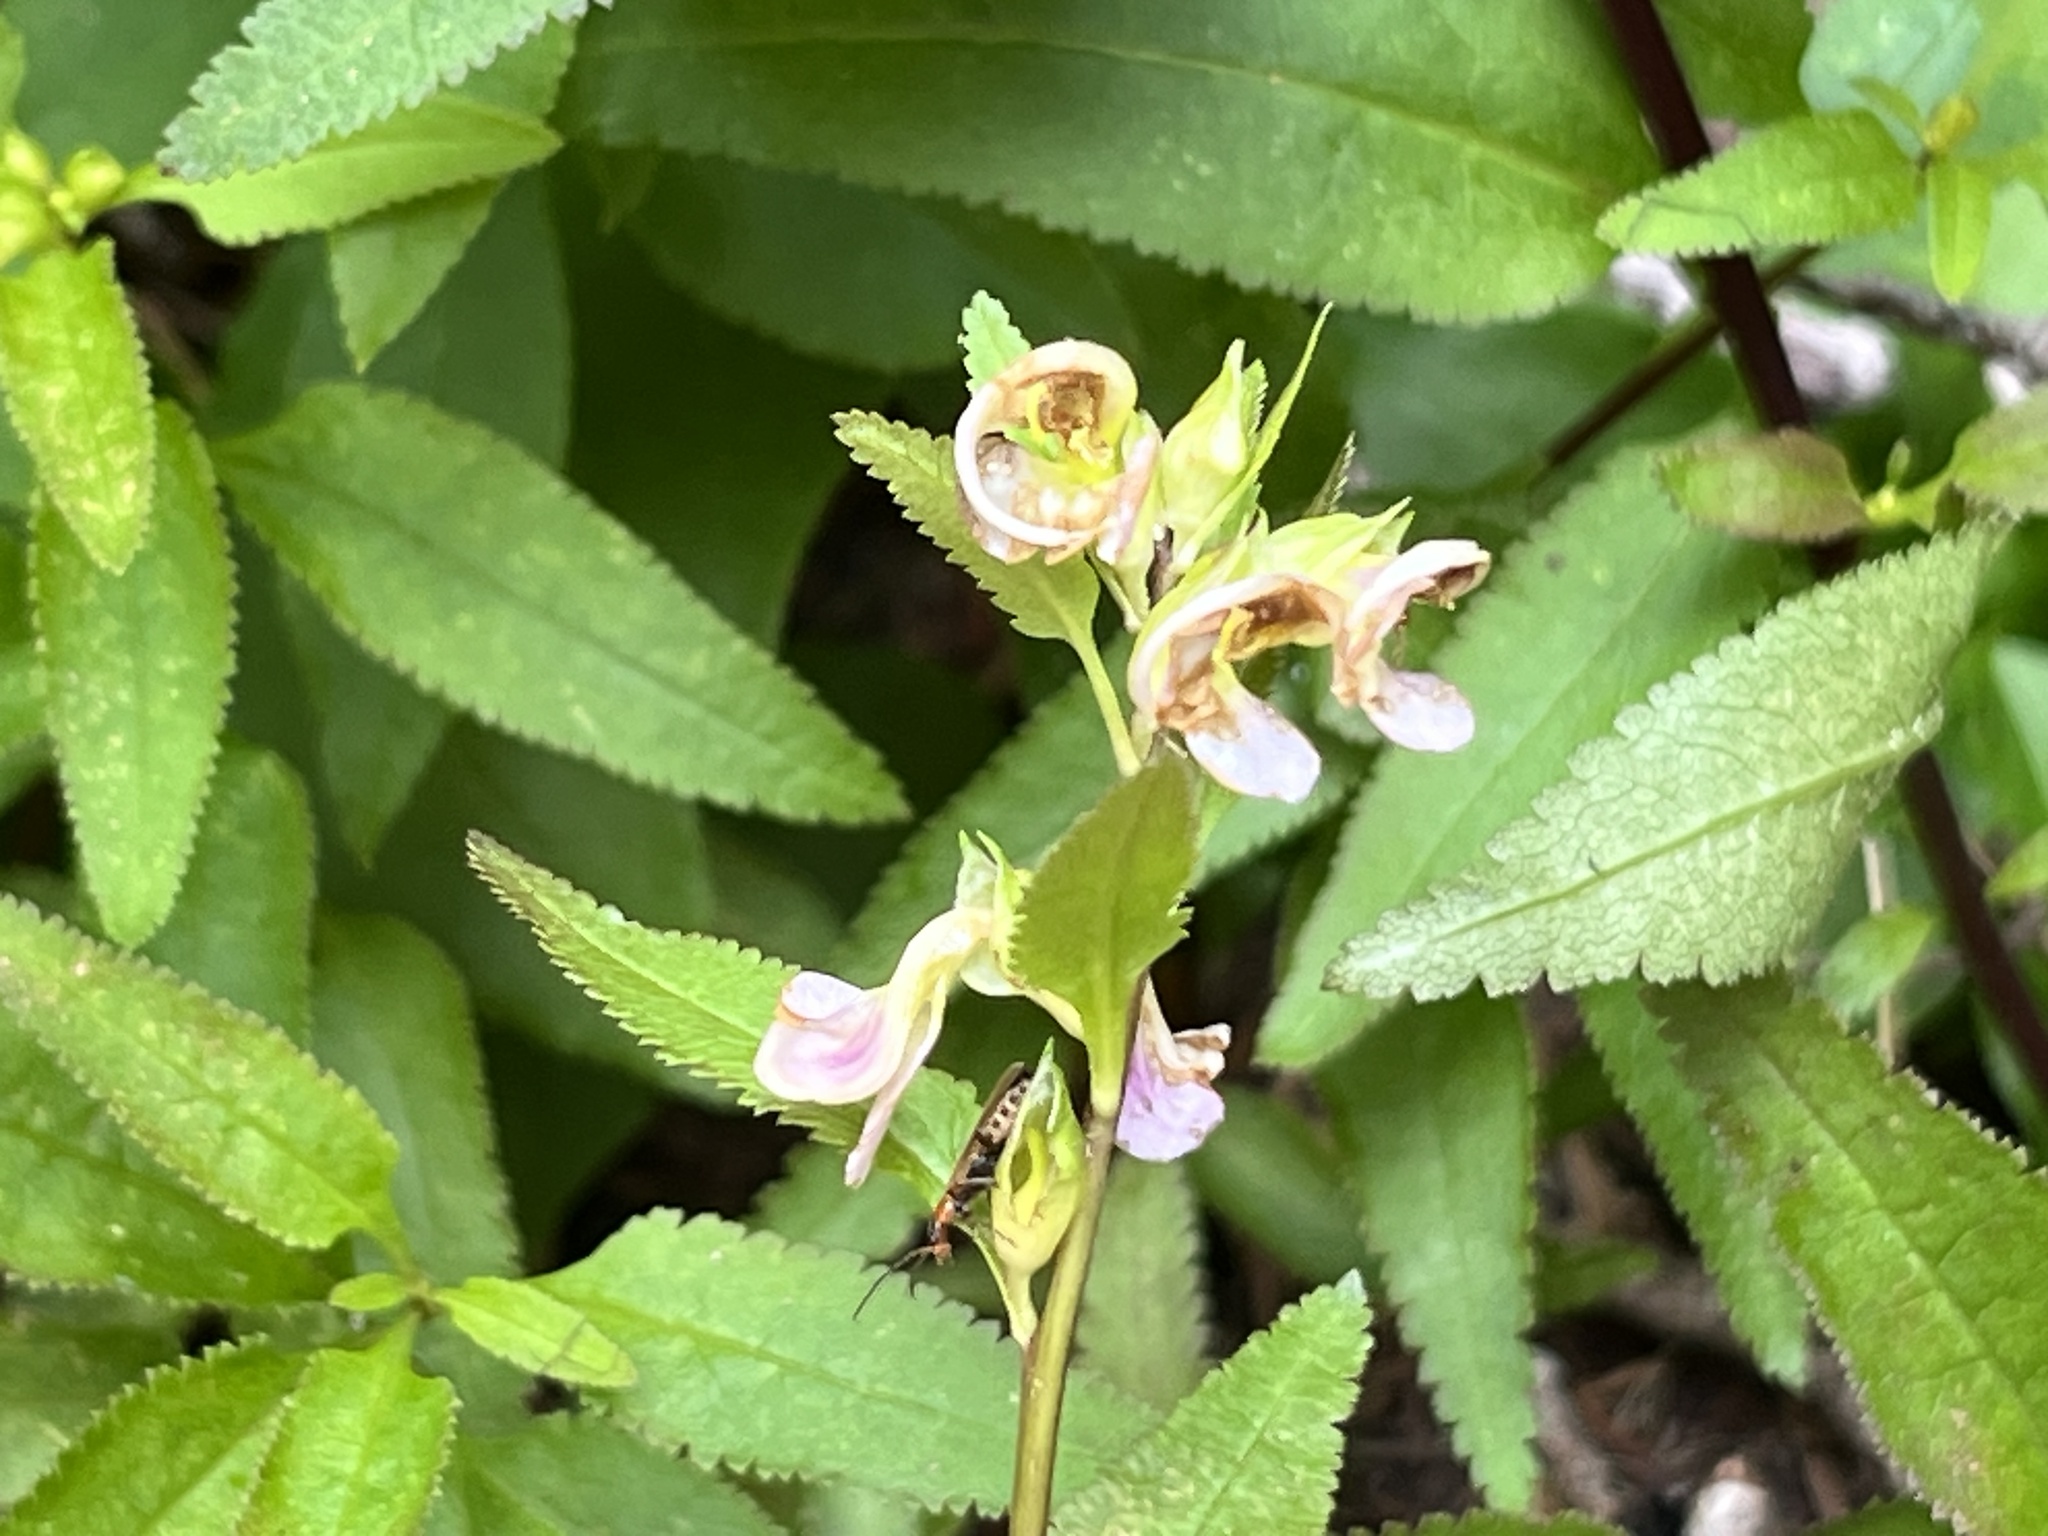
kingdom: Plantae
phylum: Tracheophyta
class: Magnoliopsida
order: Lamiales
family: Orobanchaceae
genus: Pedicularis
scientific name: Pedicularis racemosa
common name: Leafy lousewort
